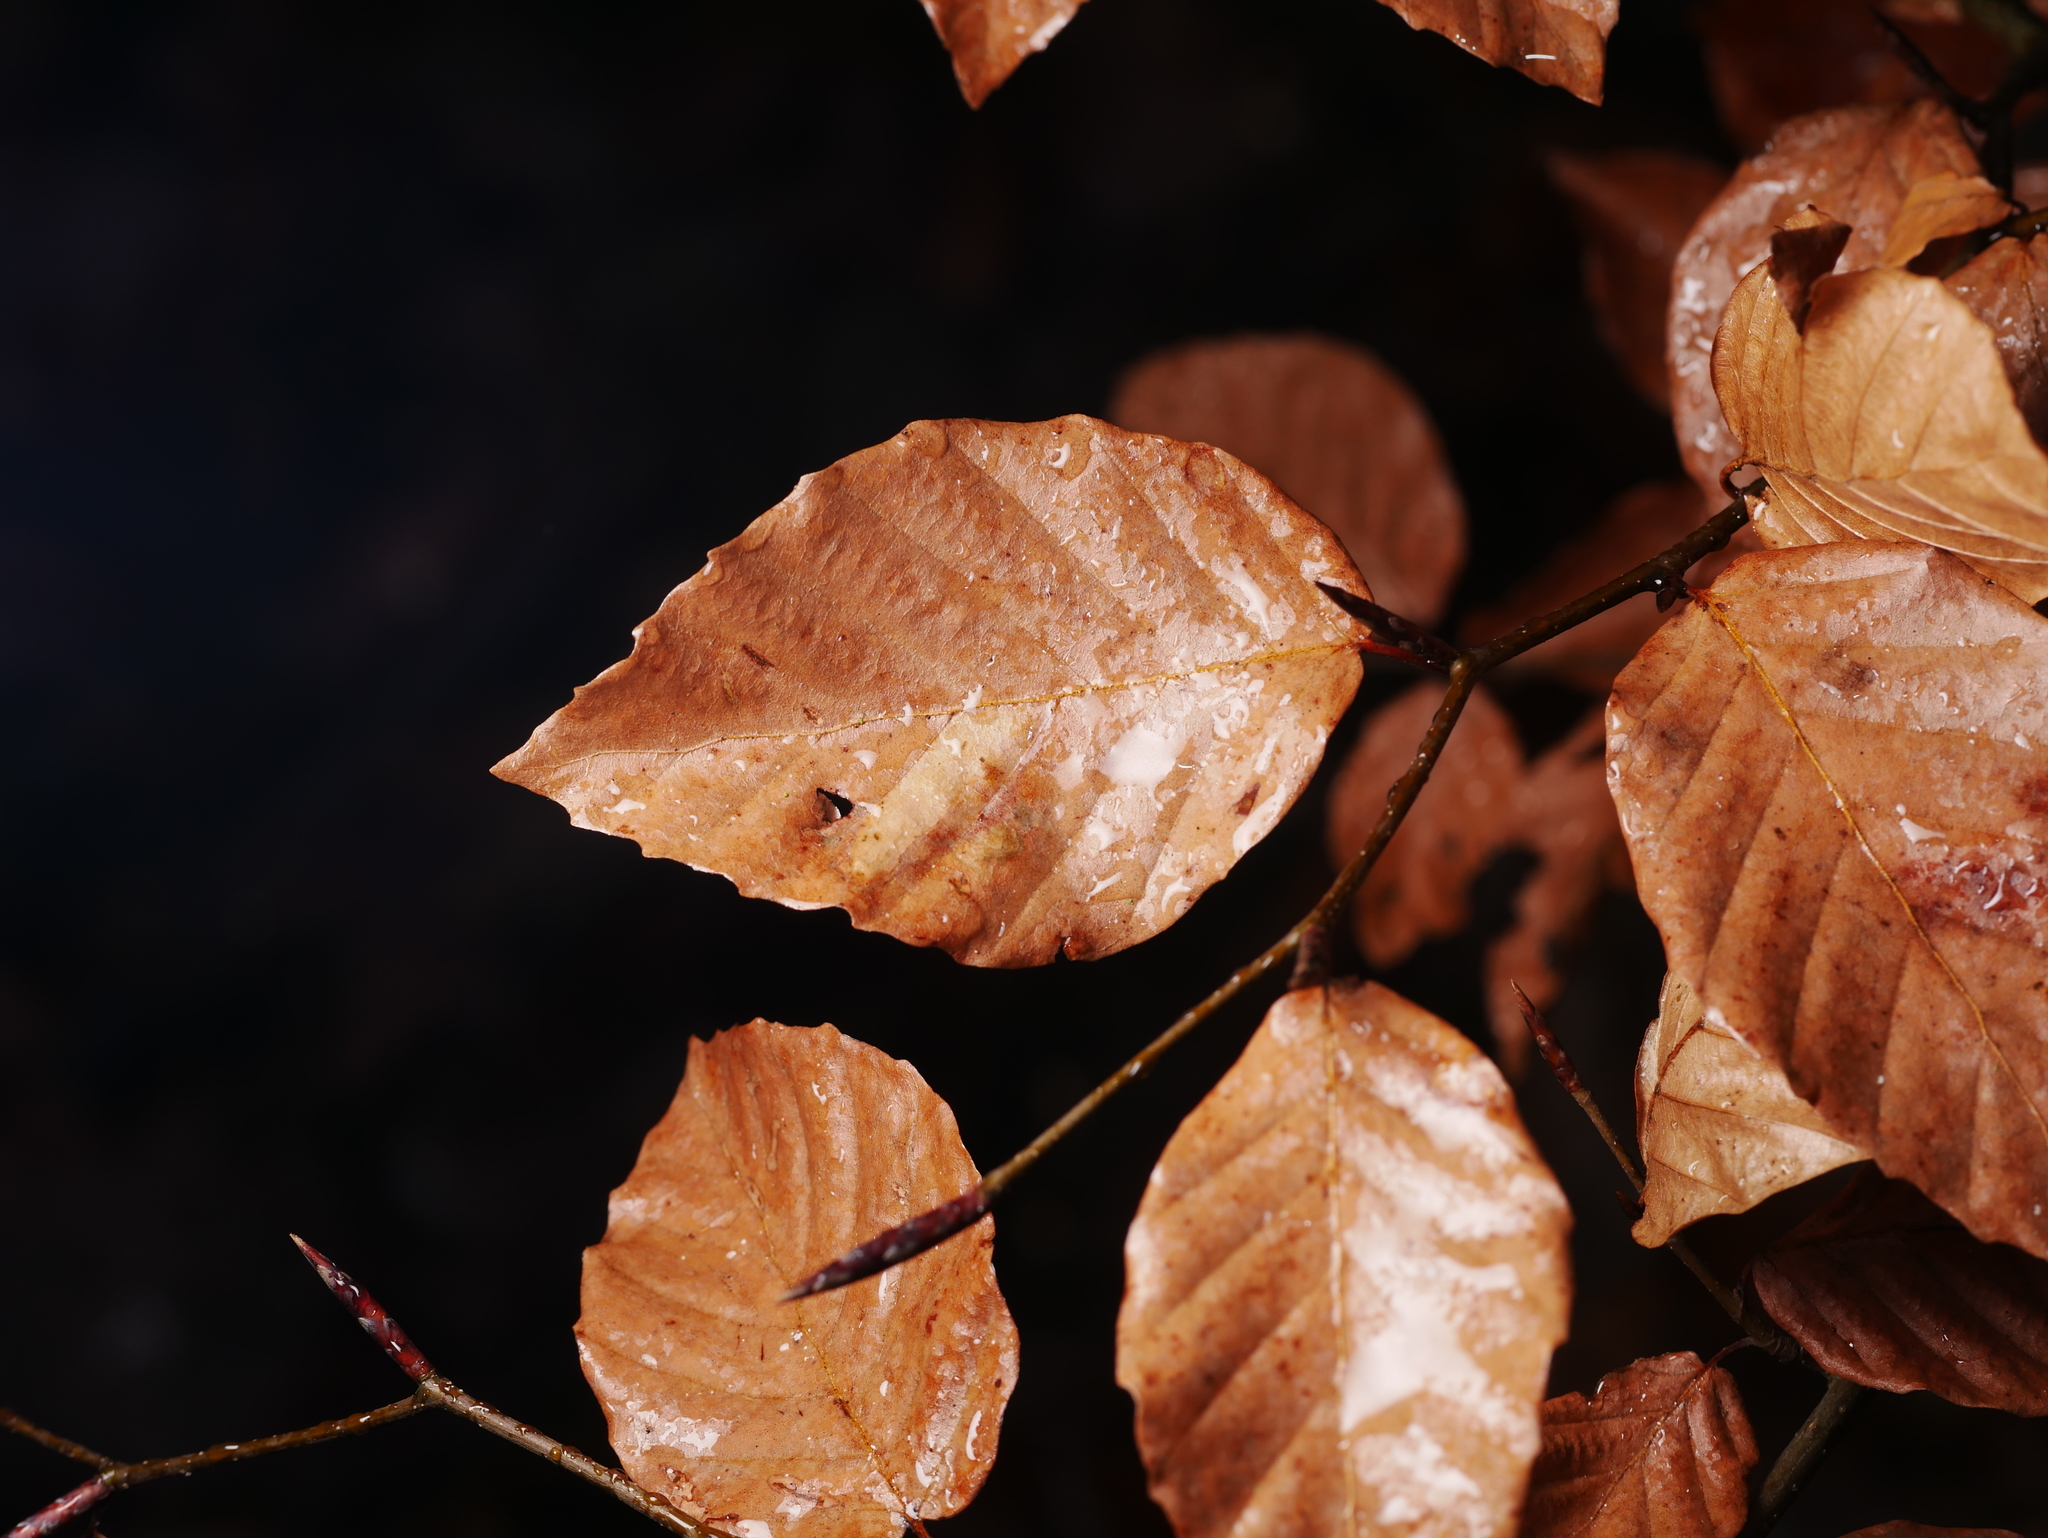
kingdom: Plantae
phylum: Tracheophyta
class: Magnoliopsida
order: Fagales
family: Fagaceae
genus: Fagus
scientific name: Fagus sylvatica
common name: Beech
